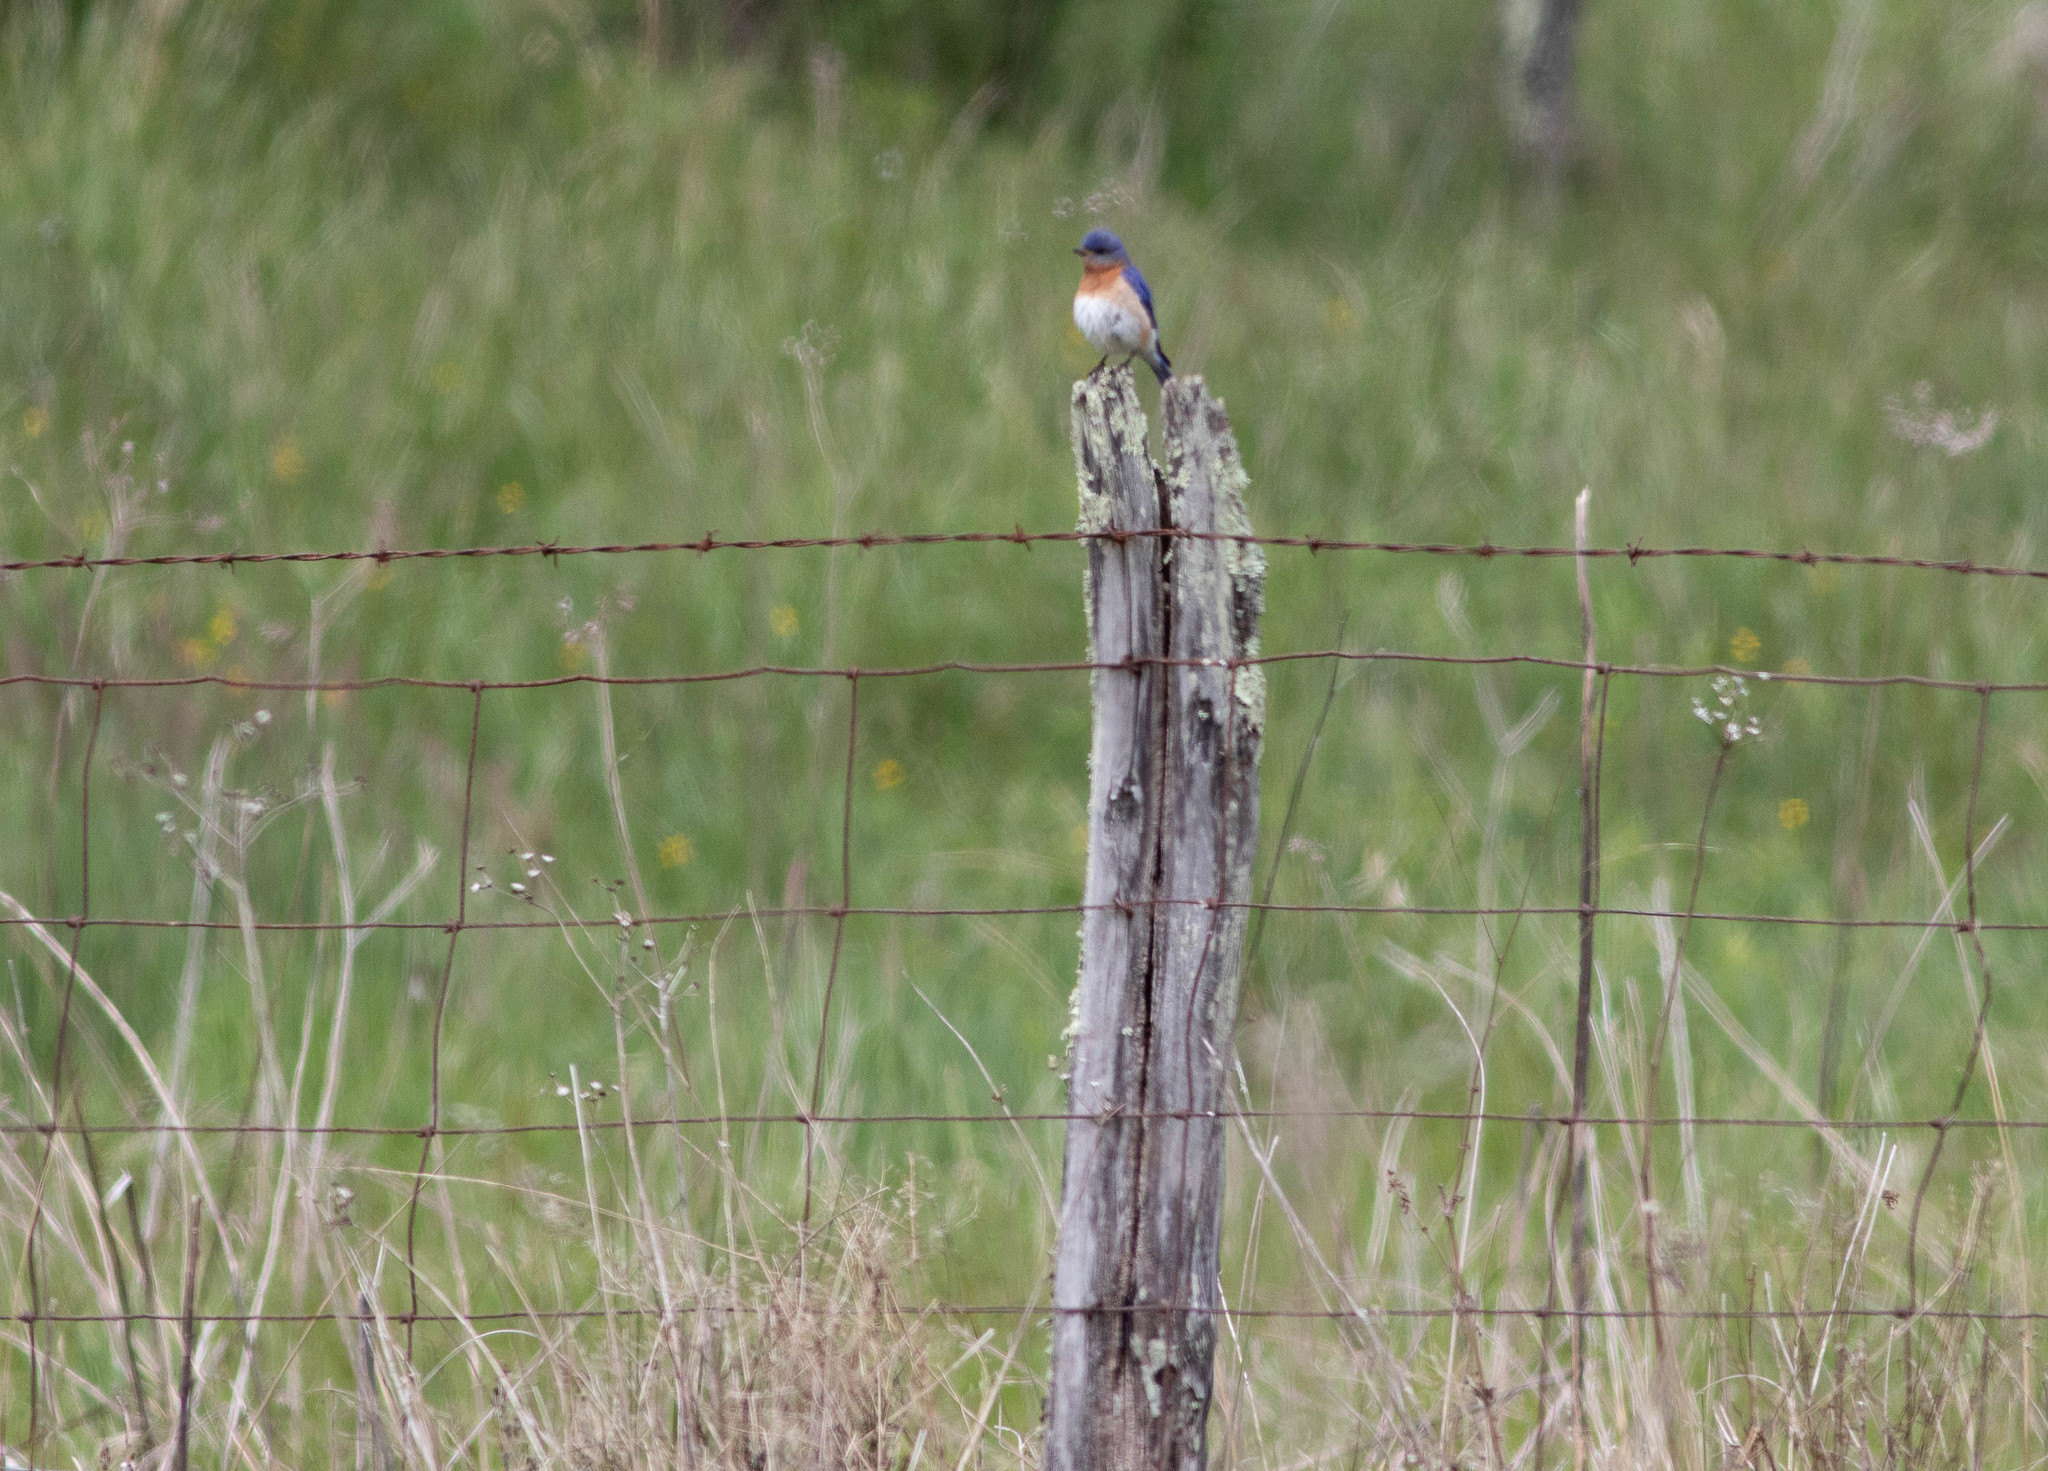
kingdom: Animalia
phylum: Chordata
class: Aves
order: Passeriformes
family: Turdidae
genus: Sialia
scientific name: Sialia sialis
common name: Eastern bluebird
